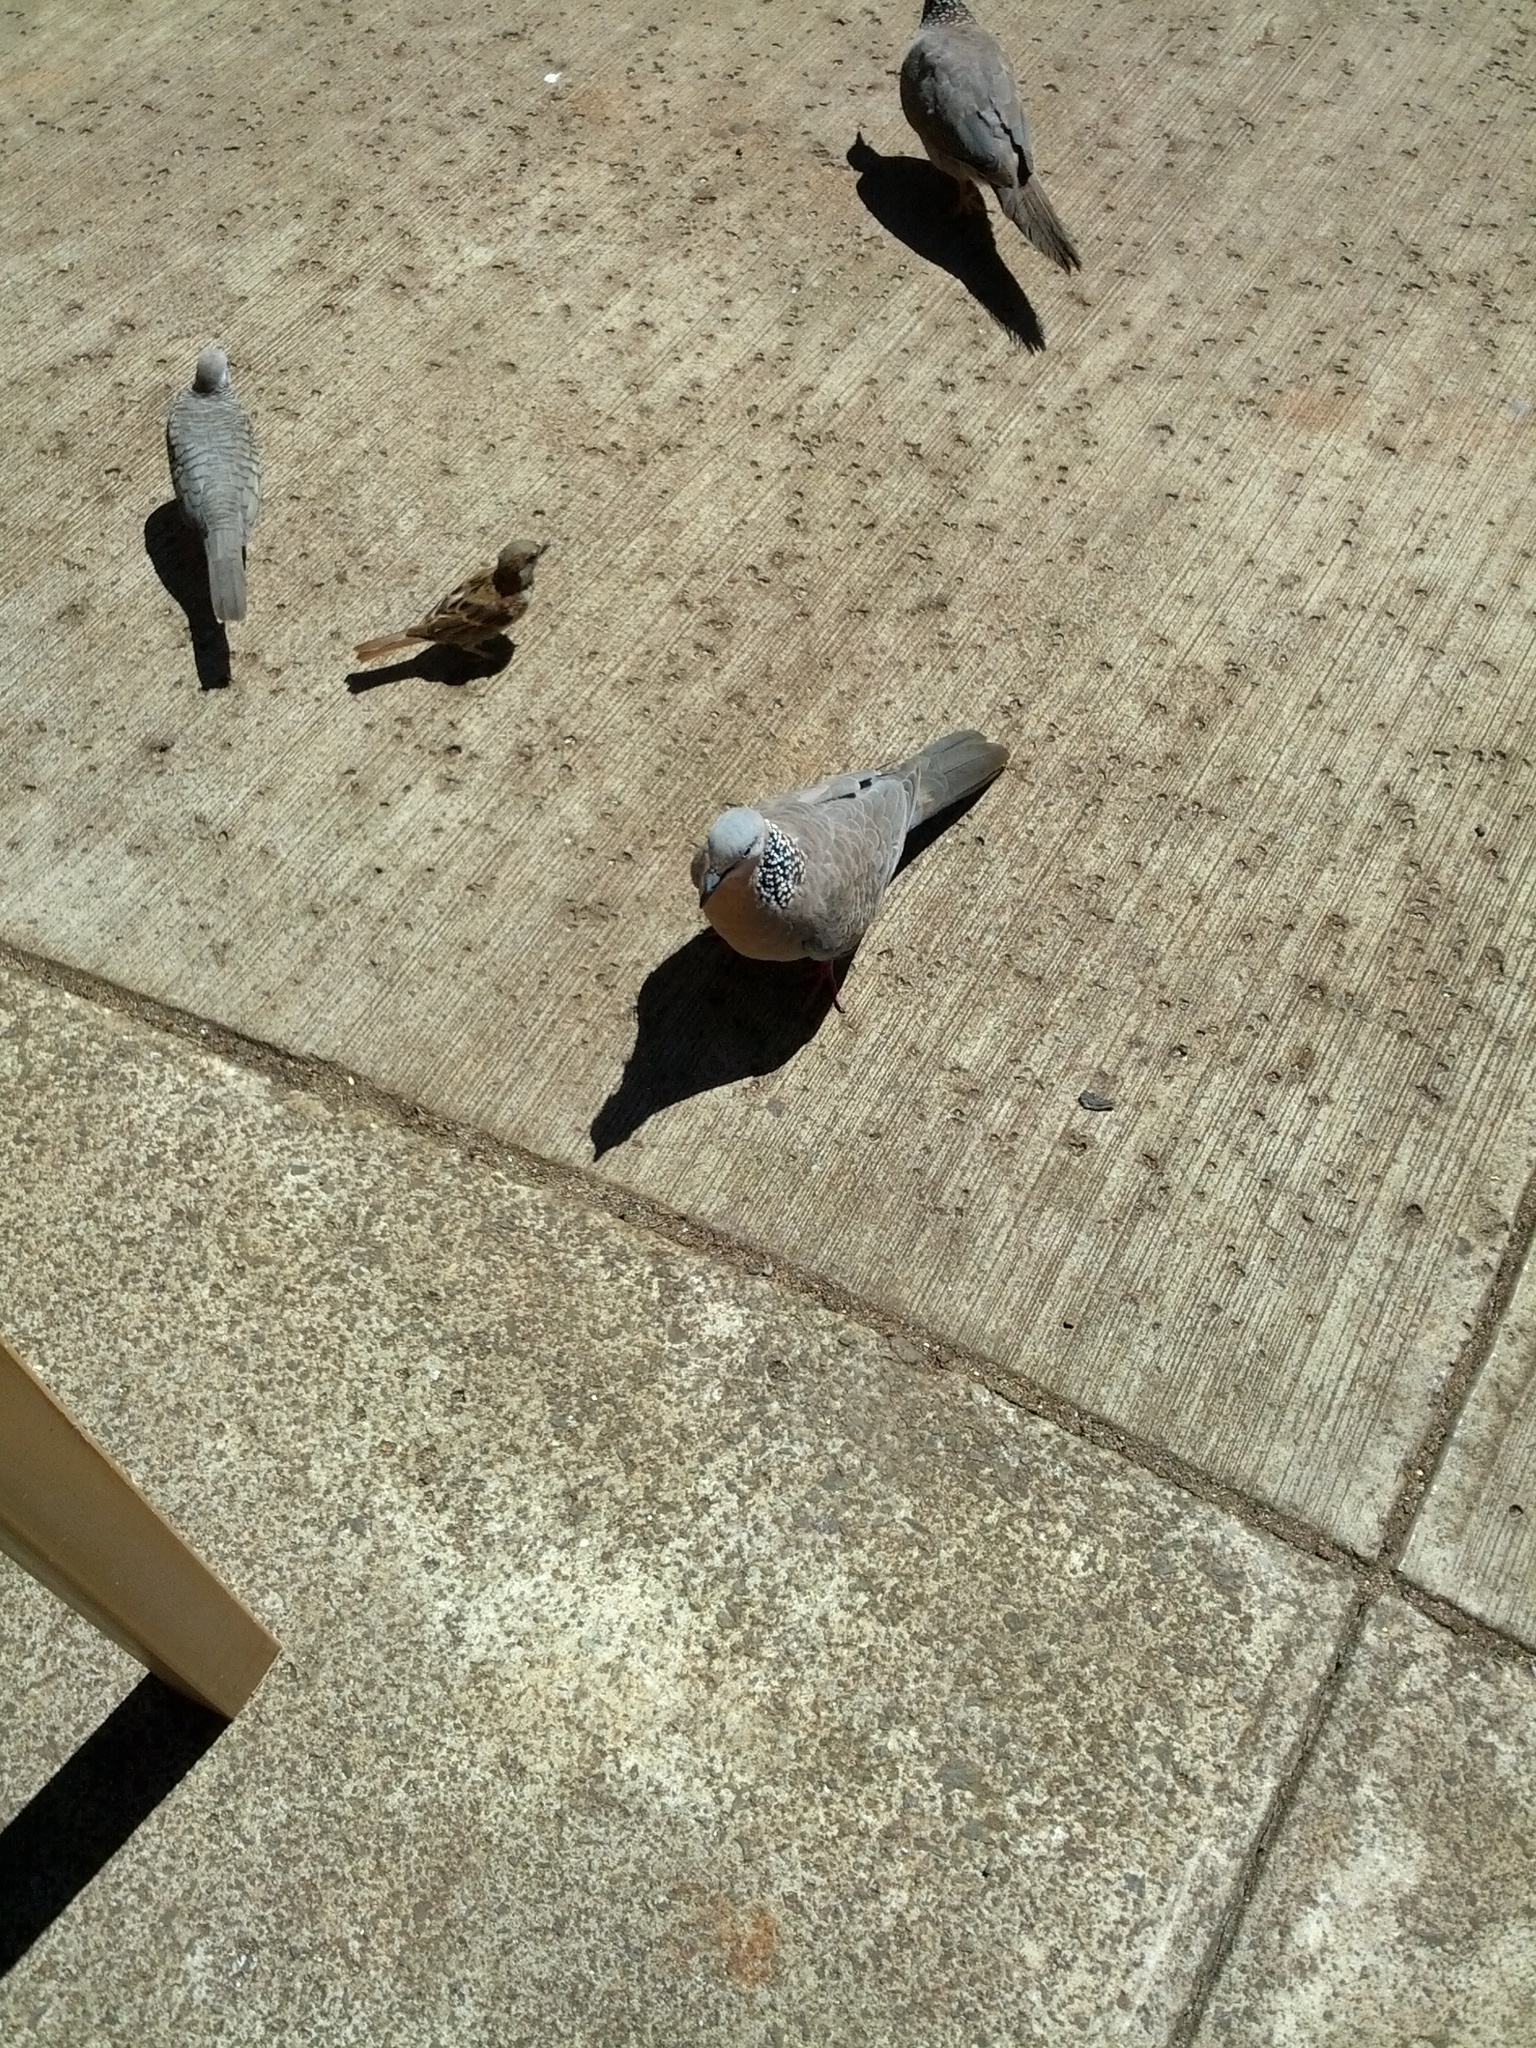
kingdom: Animalia
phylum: Chordata
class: Aves
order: Columbiformes
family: Columbidae
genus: Spilopelia
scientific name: Spilopelia chinensis
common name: Spotted dove
